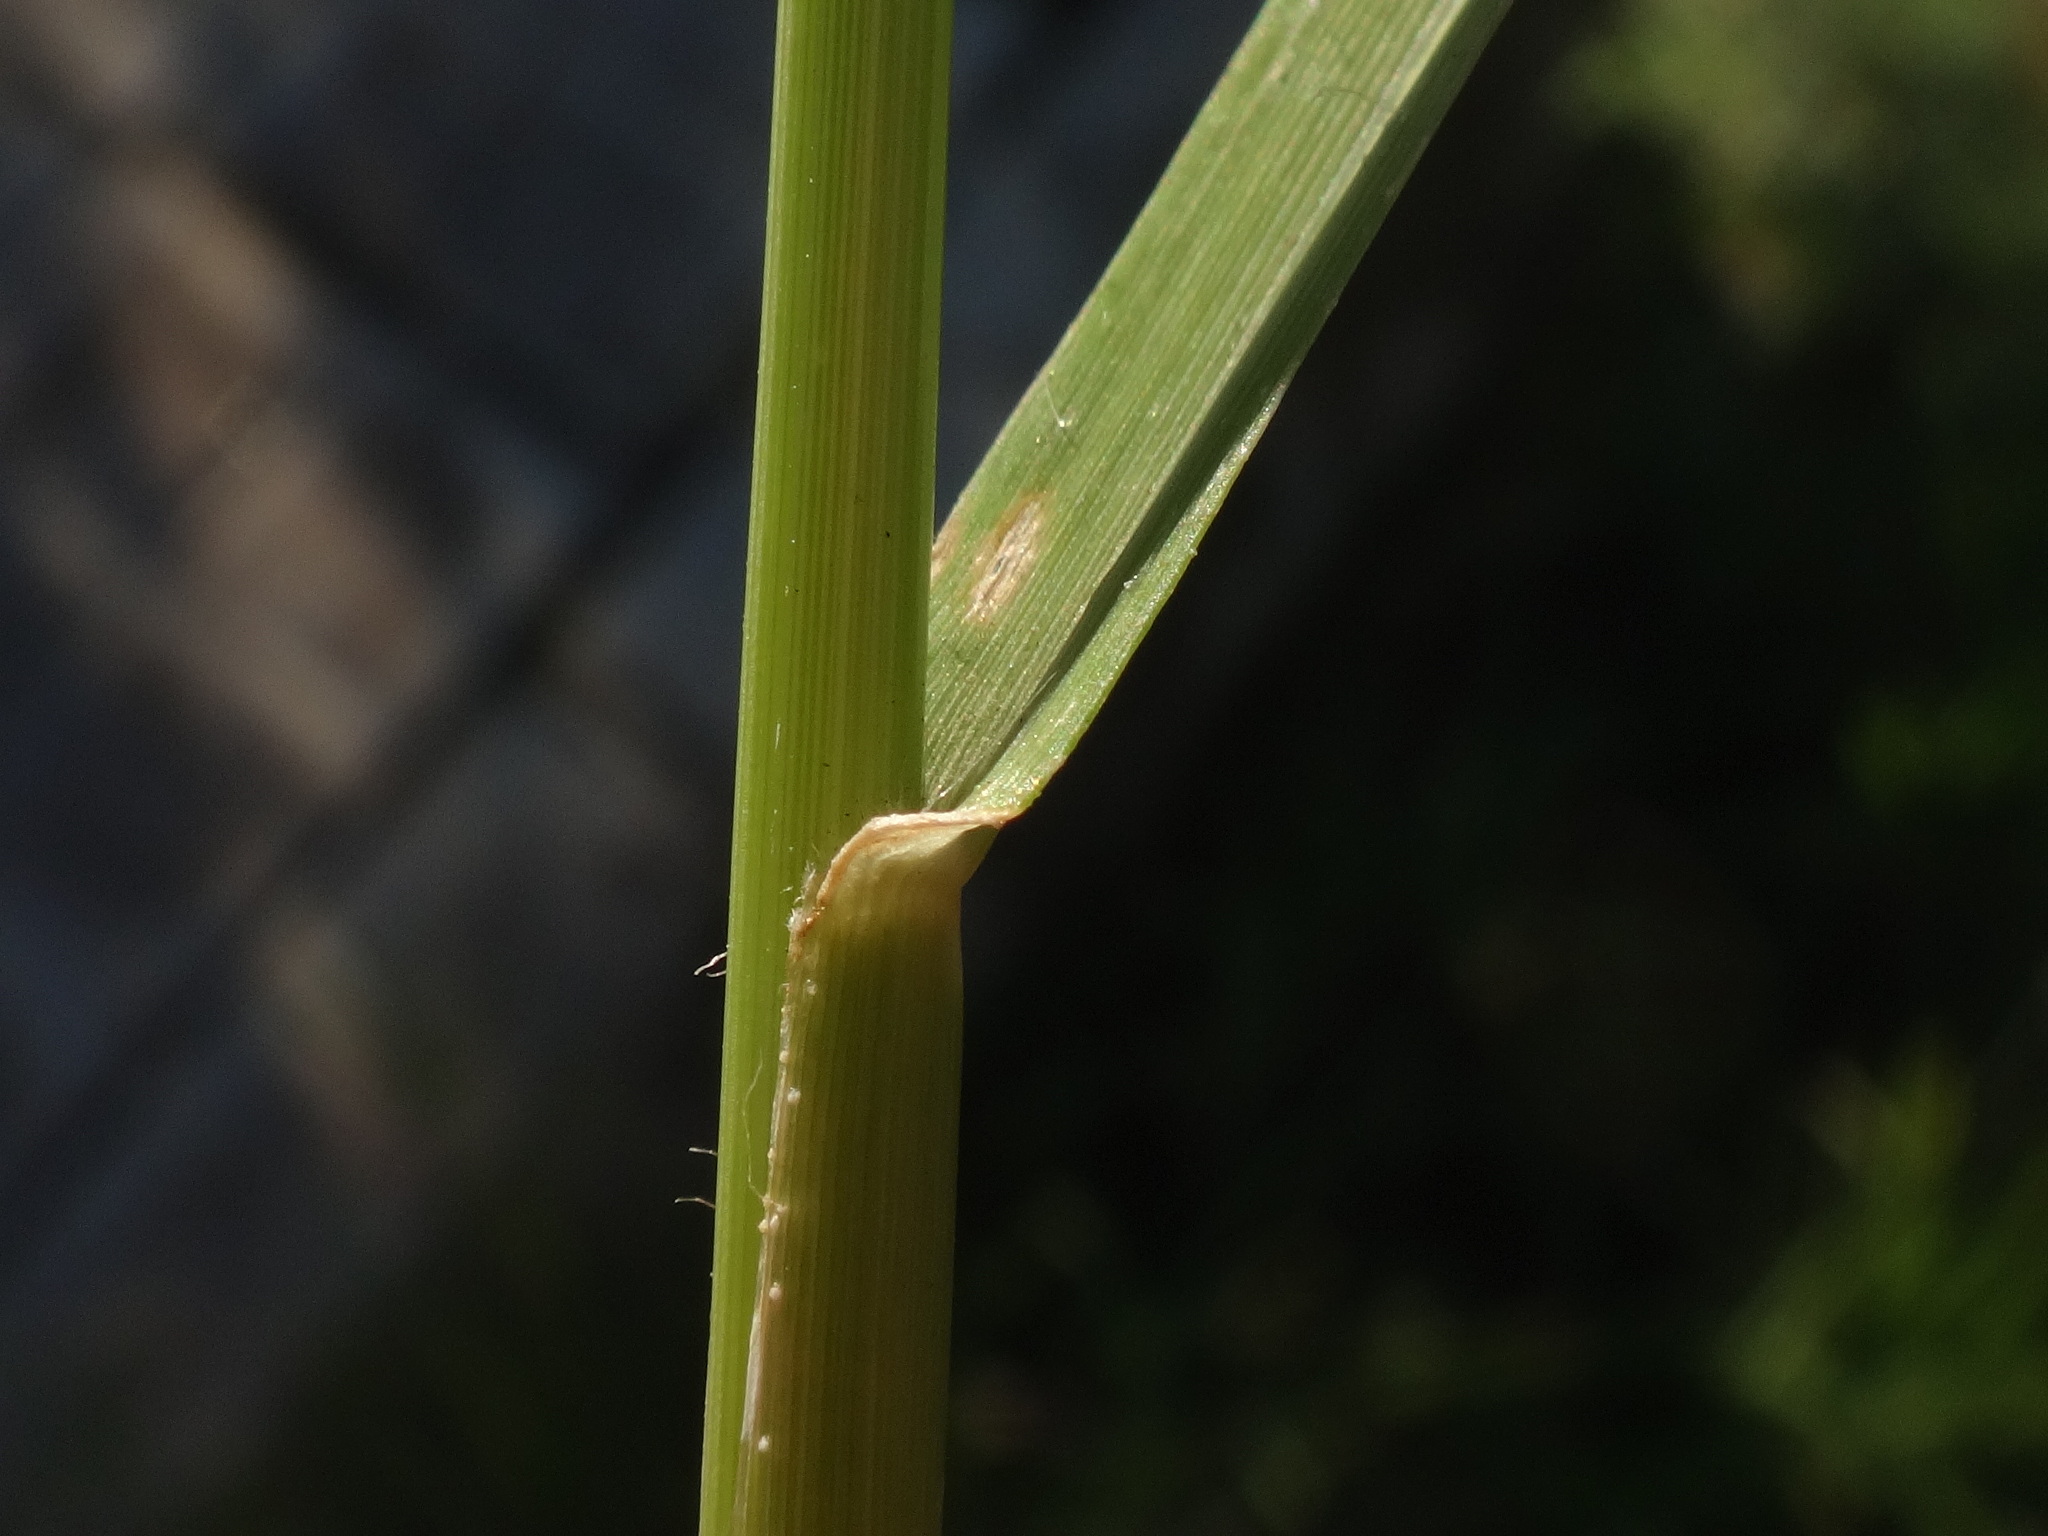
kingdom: Plantae
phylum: Tracheophyta
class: Liliopsida
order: Poales
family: Poaceae
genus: Eleusine
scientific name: Eleusine indica
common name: Yard-grass
